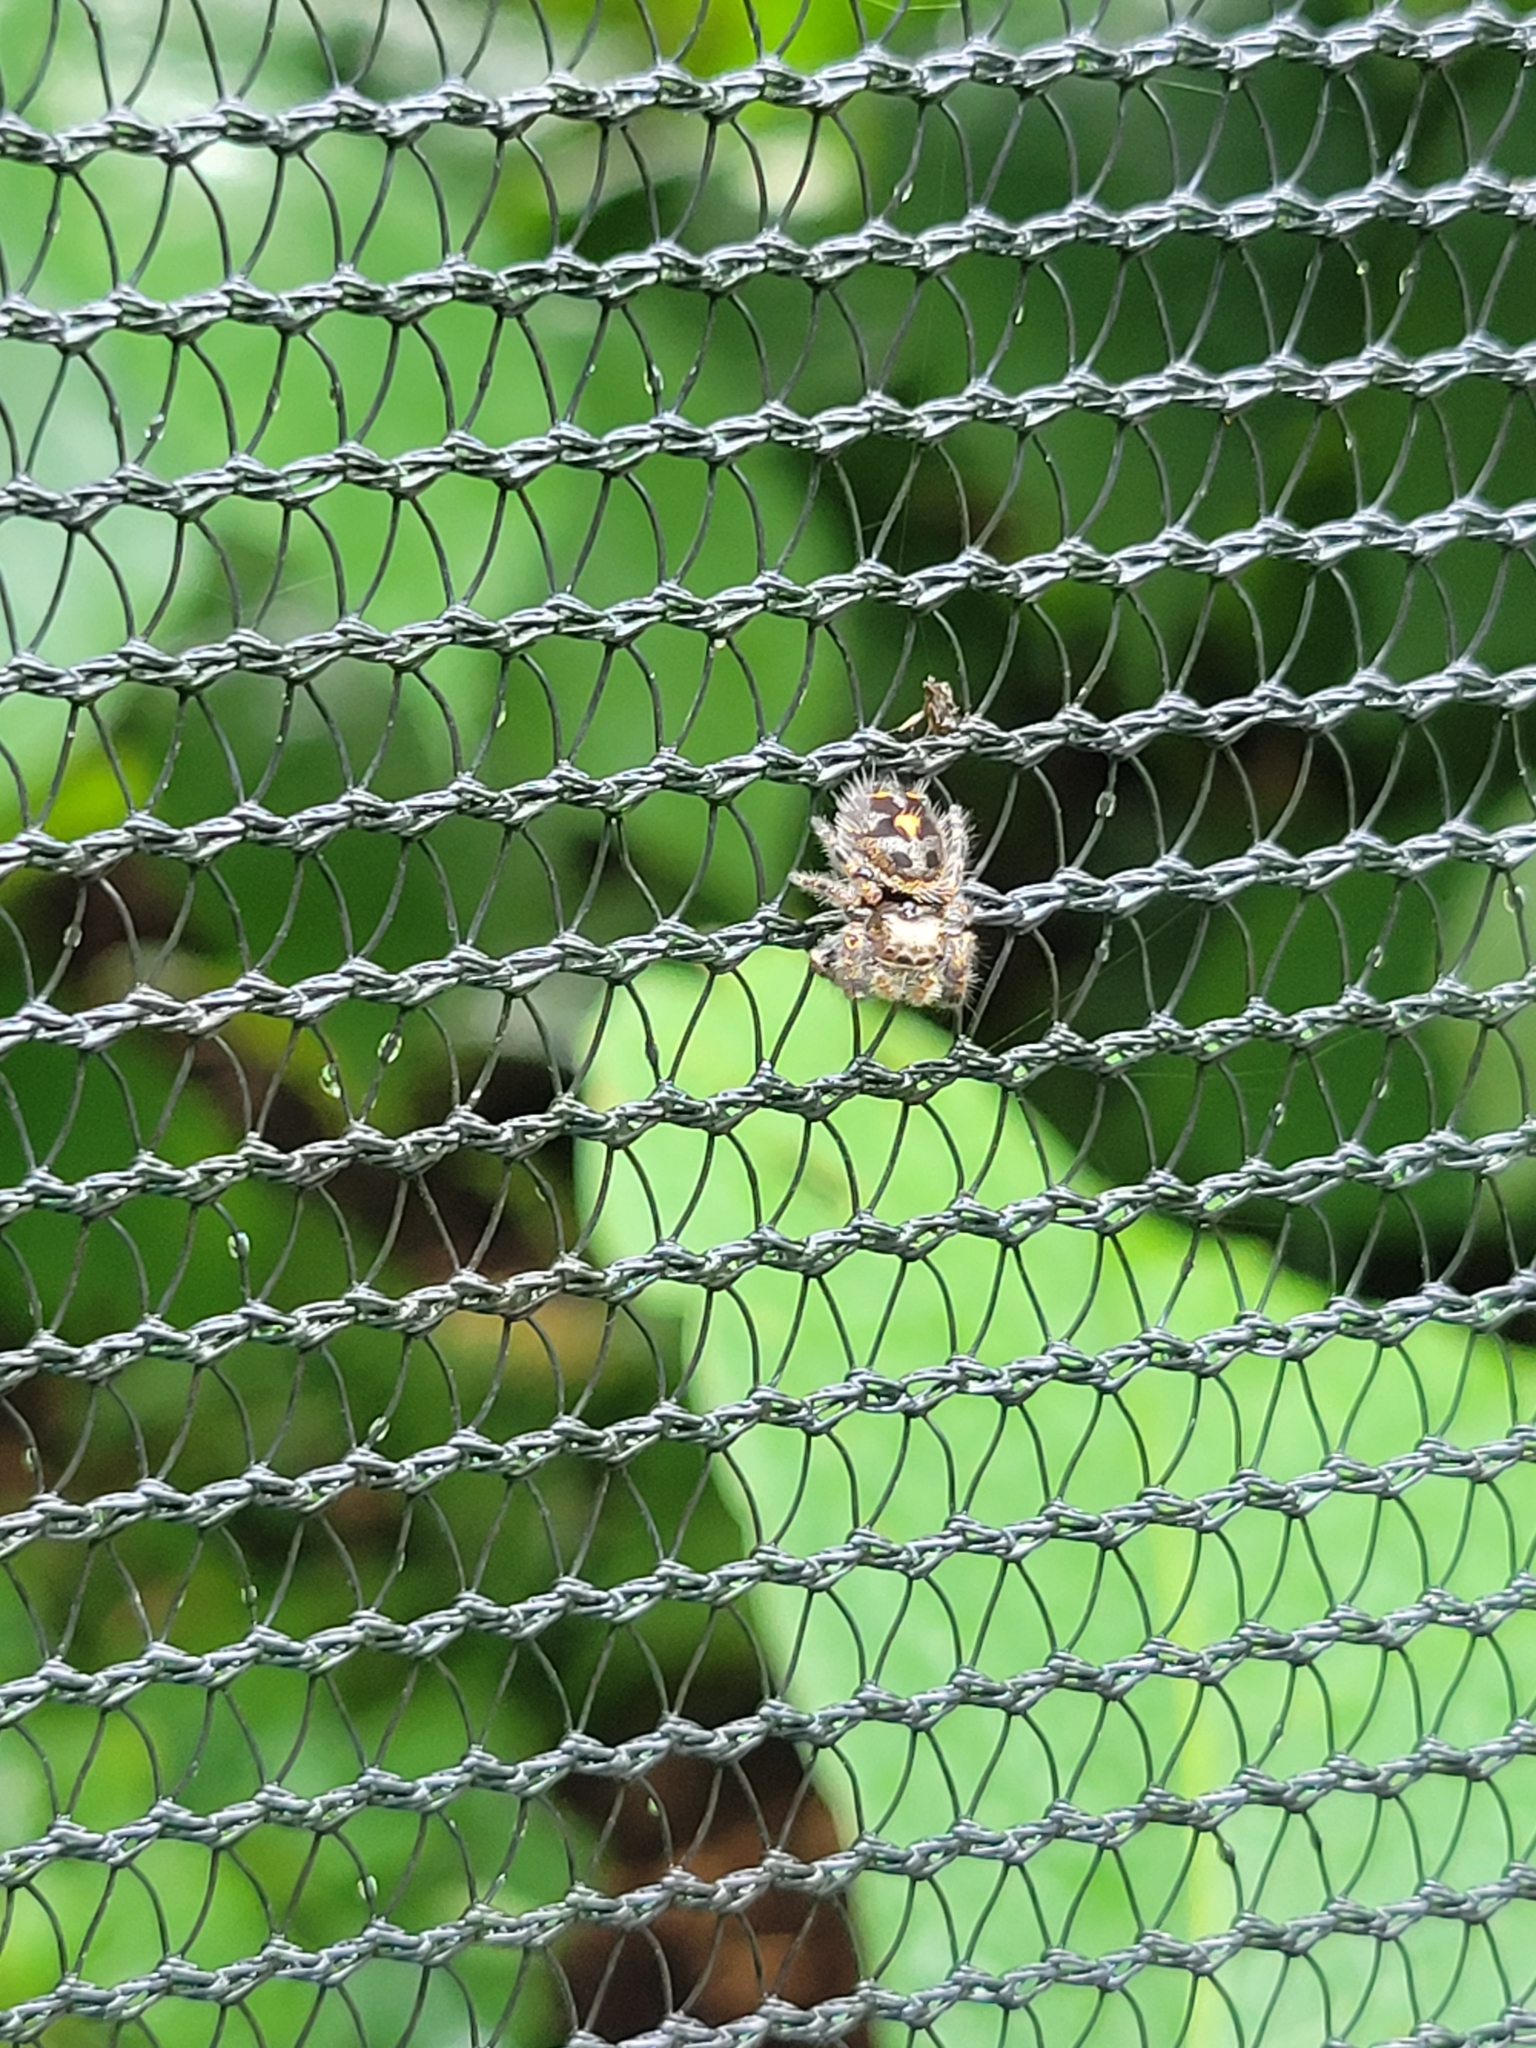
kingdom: Animalia
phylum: Arthropoda
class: Arachnida
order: Araneae
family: Salticidae
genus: Phidippus
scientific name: Phidippus audax
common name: Bold jumper
